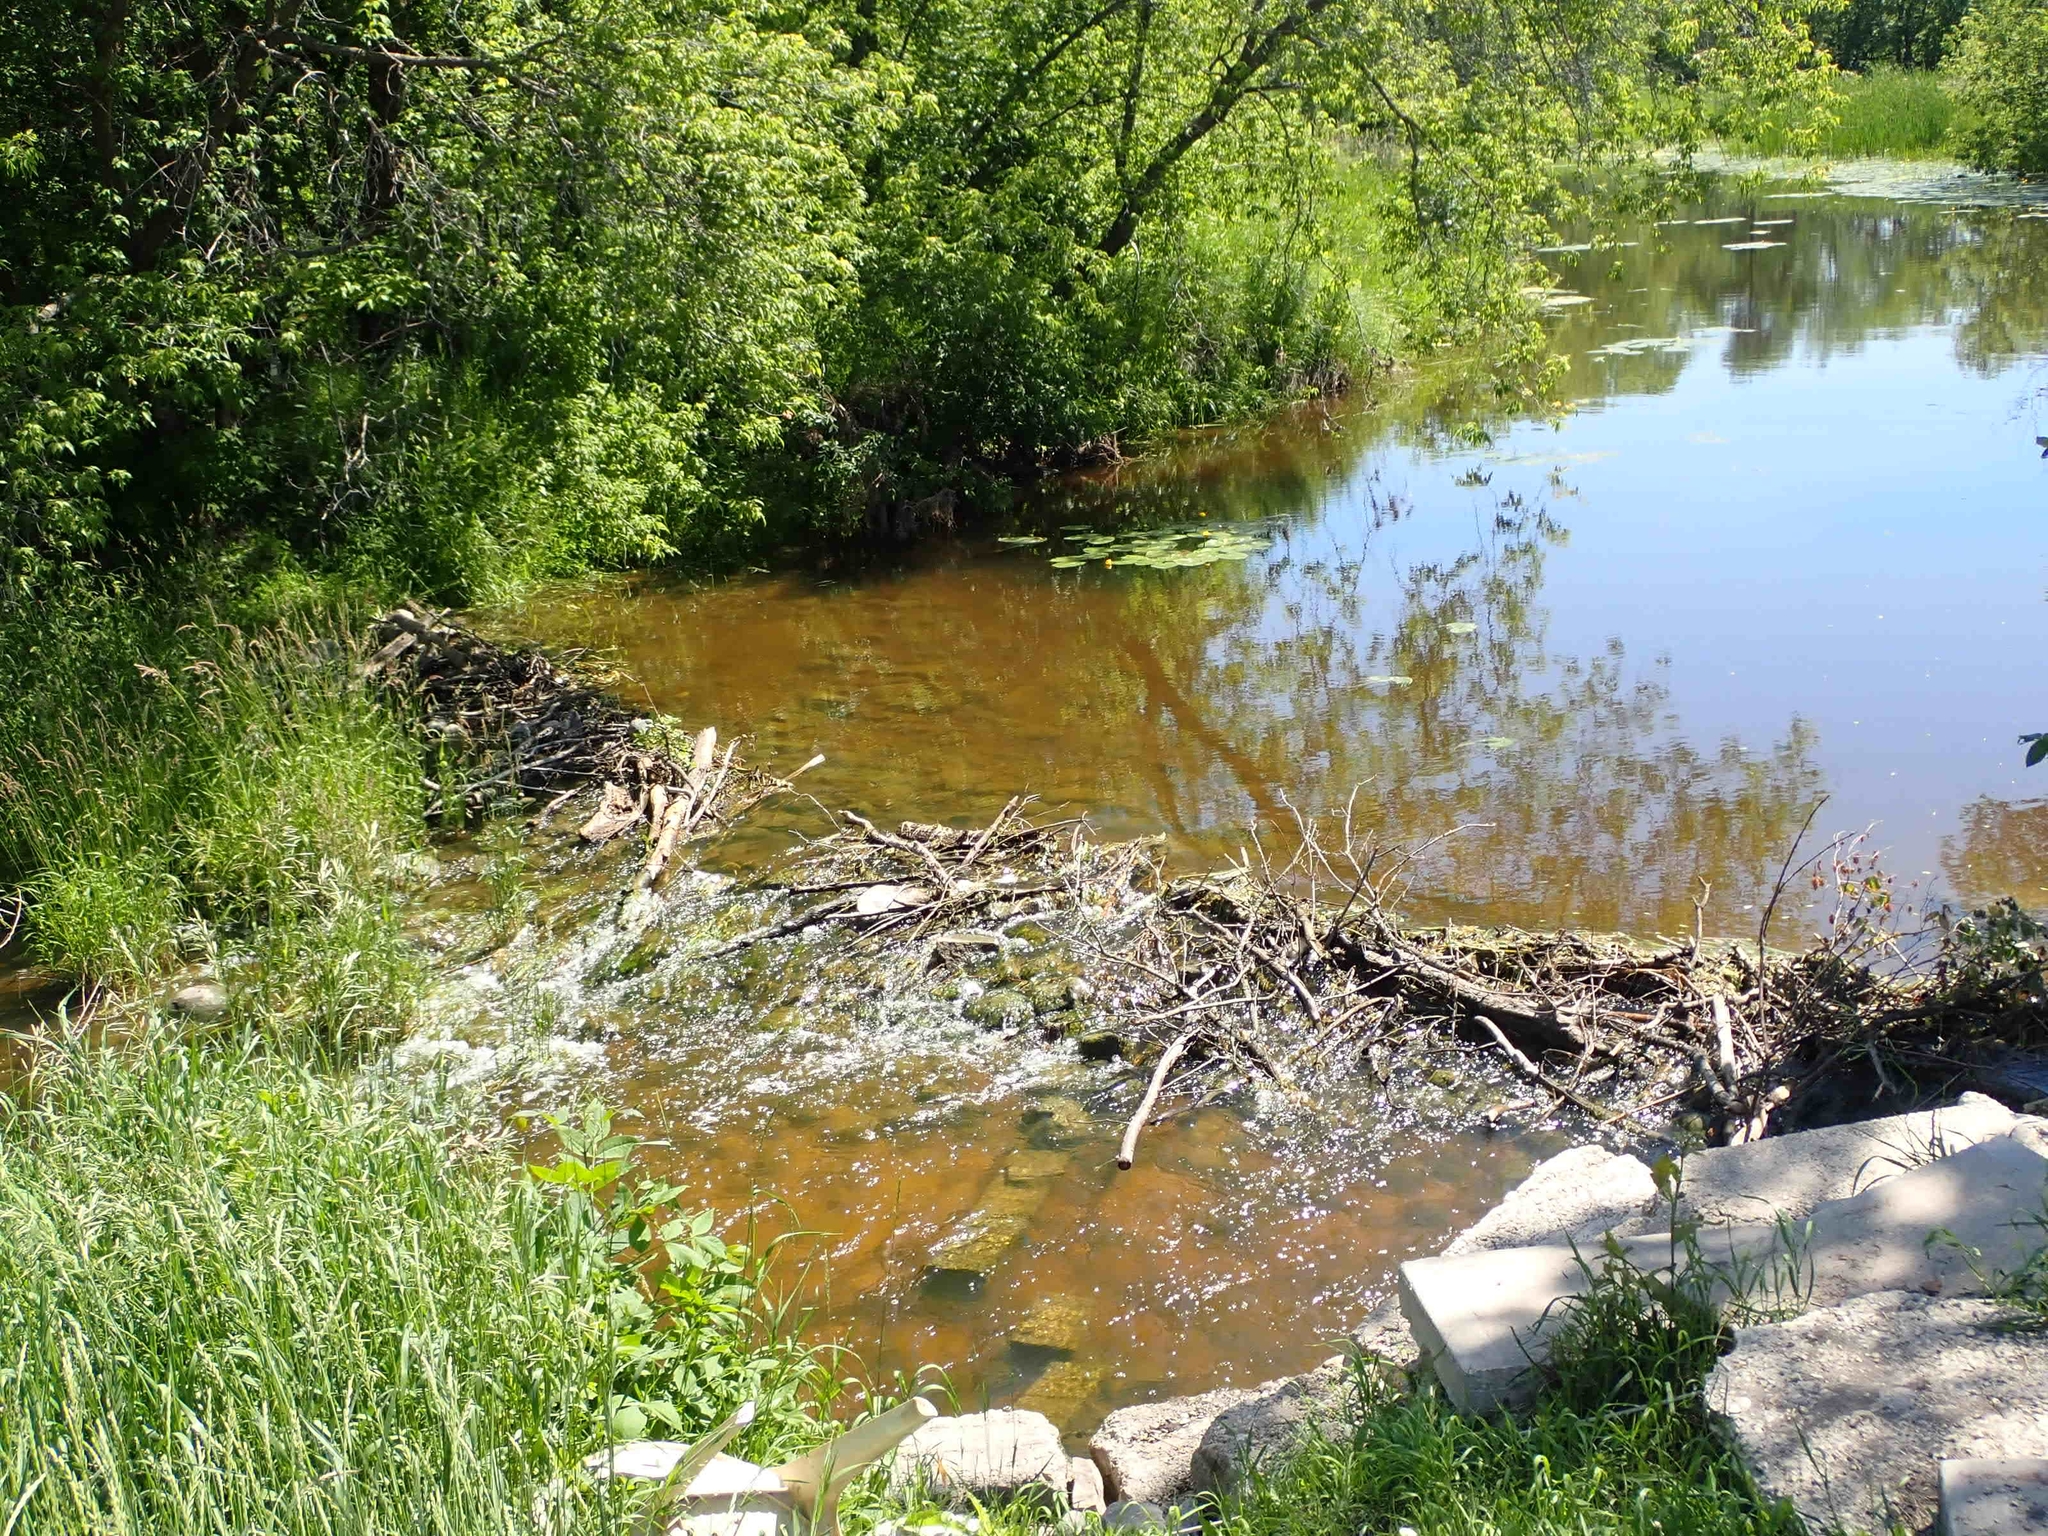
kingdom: Animalia
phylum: Chordata
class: Mammalia
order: Rodentia
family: Castoridae
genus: Castor
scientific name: Castor canadensis
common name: American beaver
